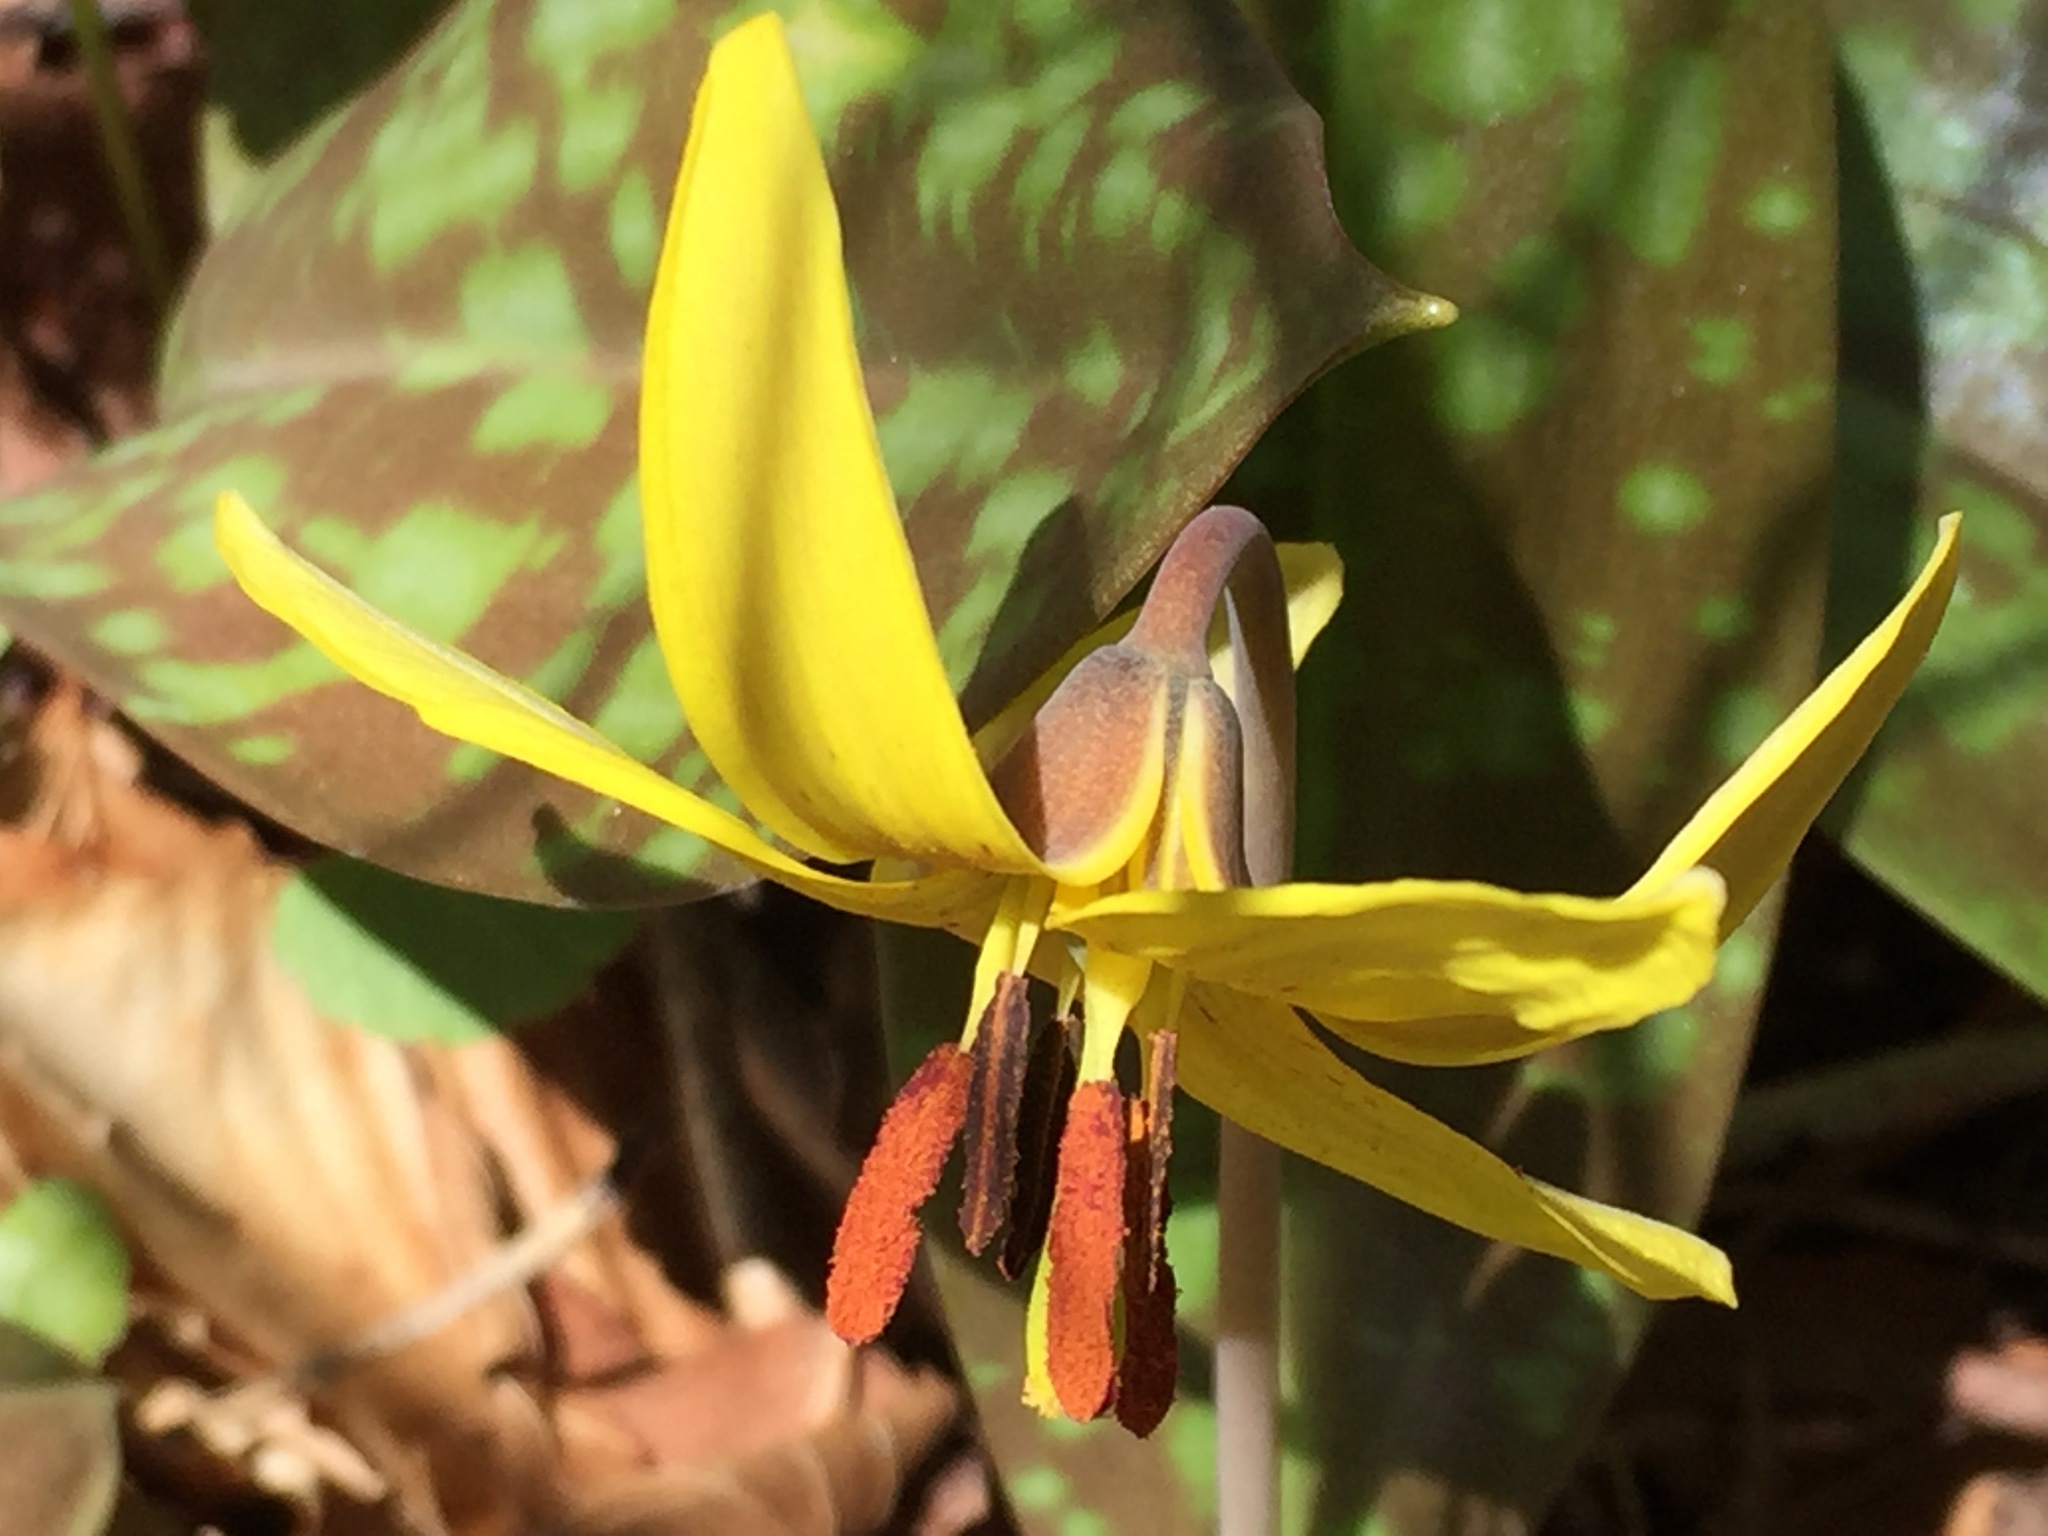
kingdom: Plantae
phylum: Tracheophyta
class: Liliopsida
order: Liliales
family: Liliaceae
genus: Erythronium
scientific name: Erythronium americanum
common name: Yellow adder's-tongue
